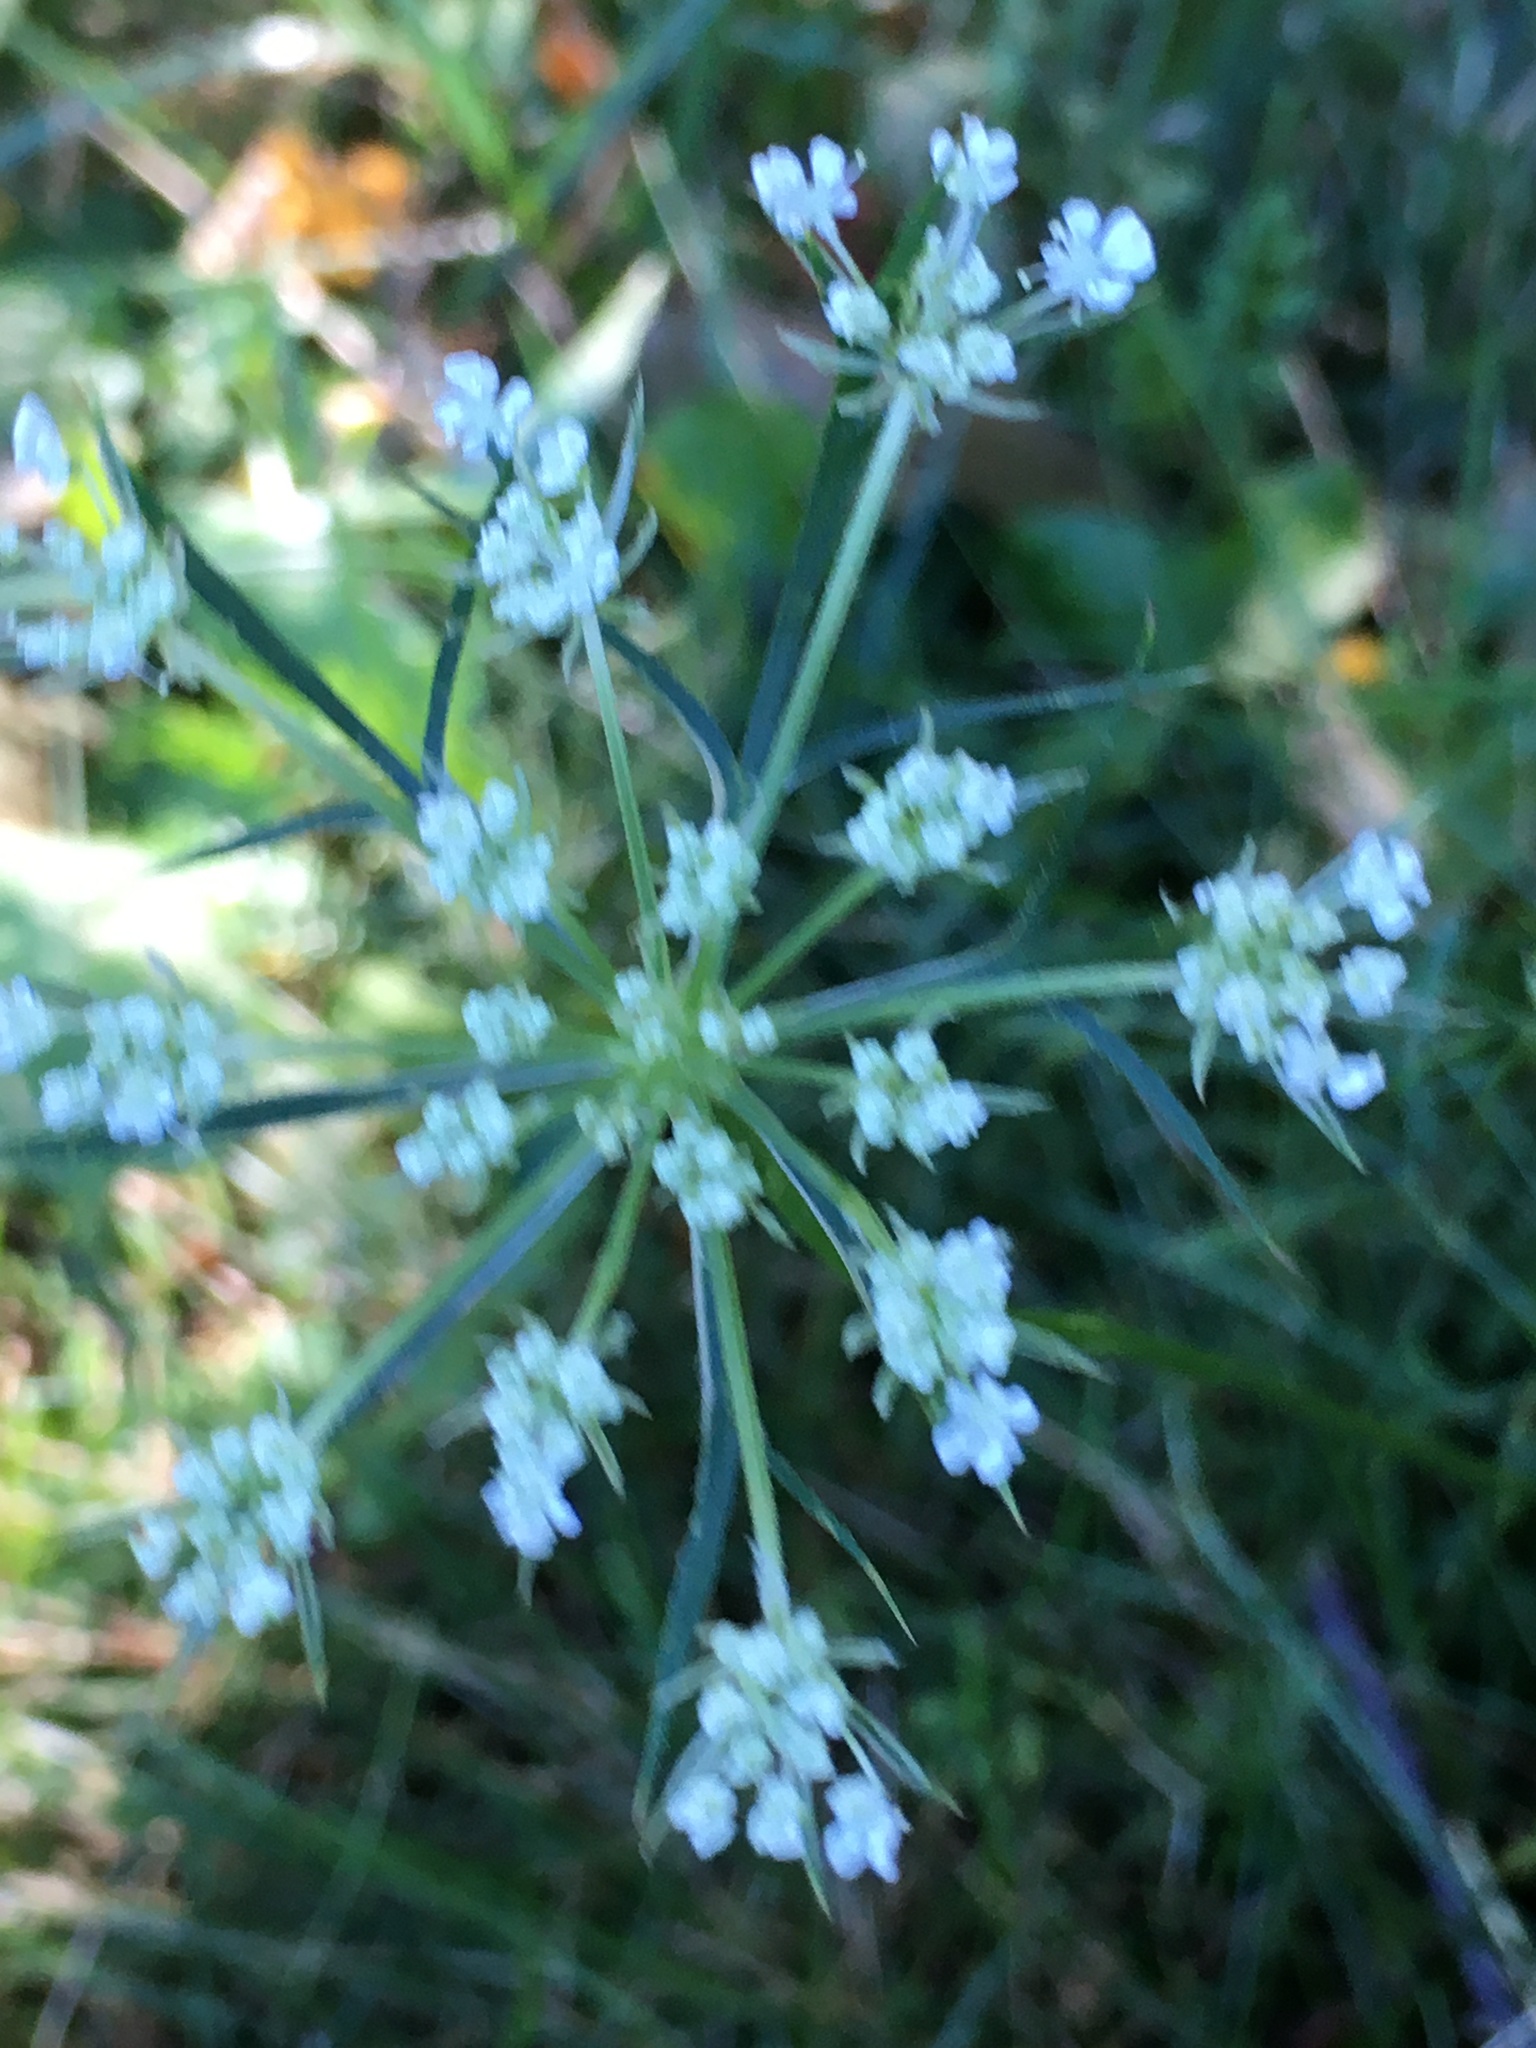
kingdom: Plantae
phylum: Tracheophyta
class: Magnoliopsida
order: Apiales
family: Apiaceae
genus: Daucus
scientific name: Daucus carota
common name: Wild carrot
